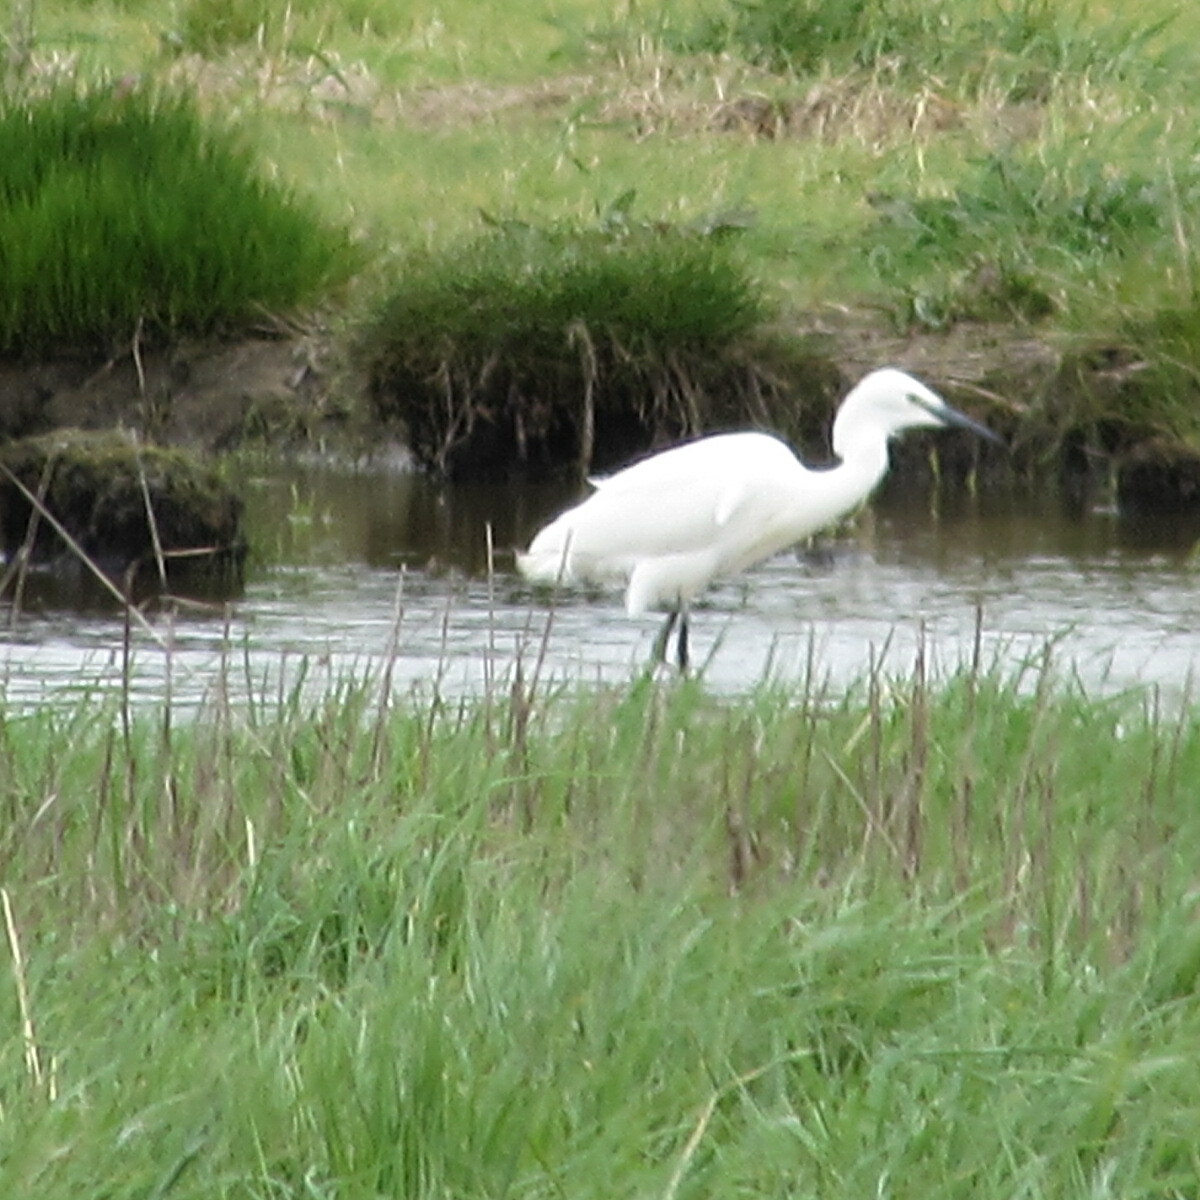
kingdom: Animalia
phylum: Chordata
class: Aves
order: Pelecaniformes
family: Ardeidae
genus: Egretta
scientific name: Egretta garzetta
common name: Little egret
